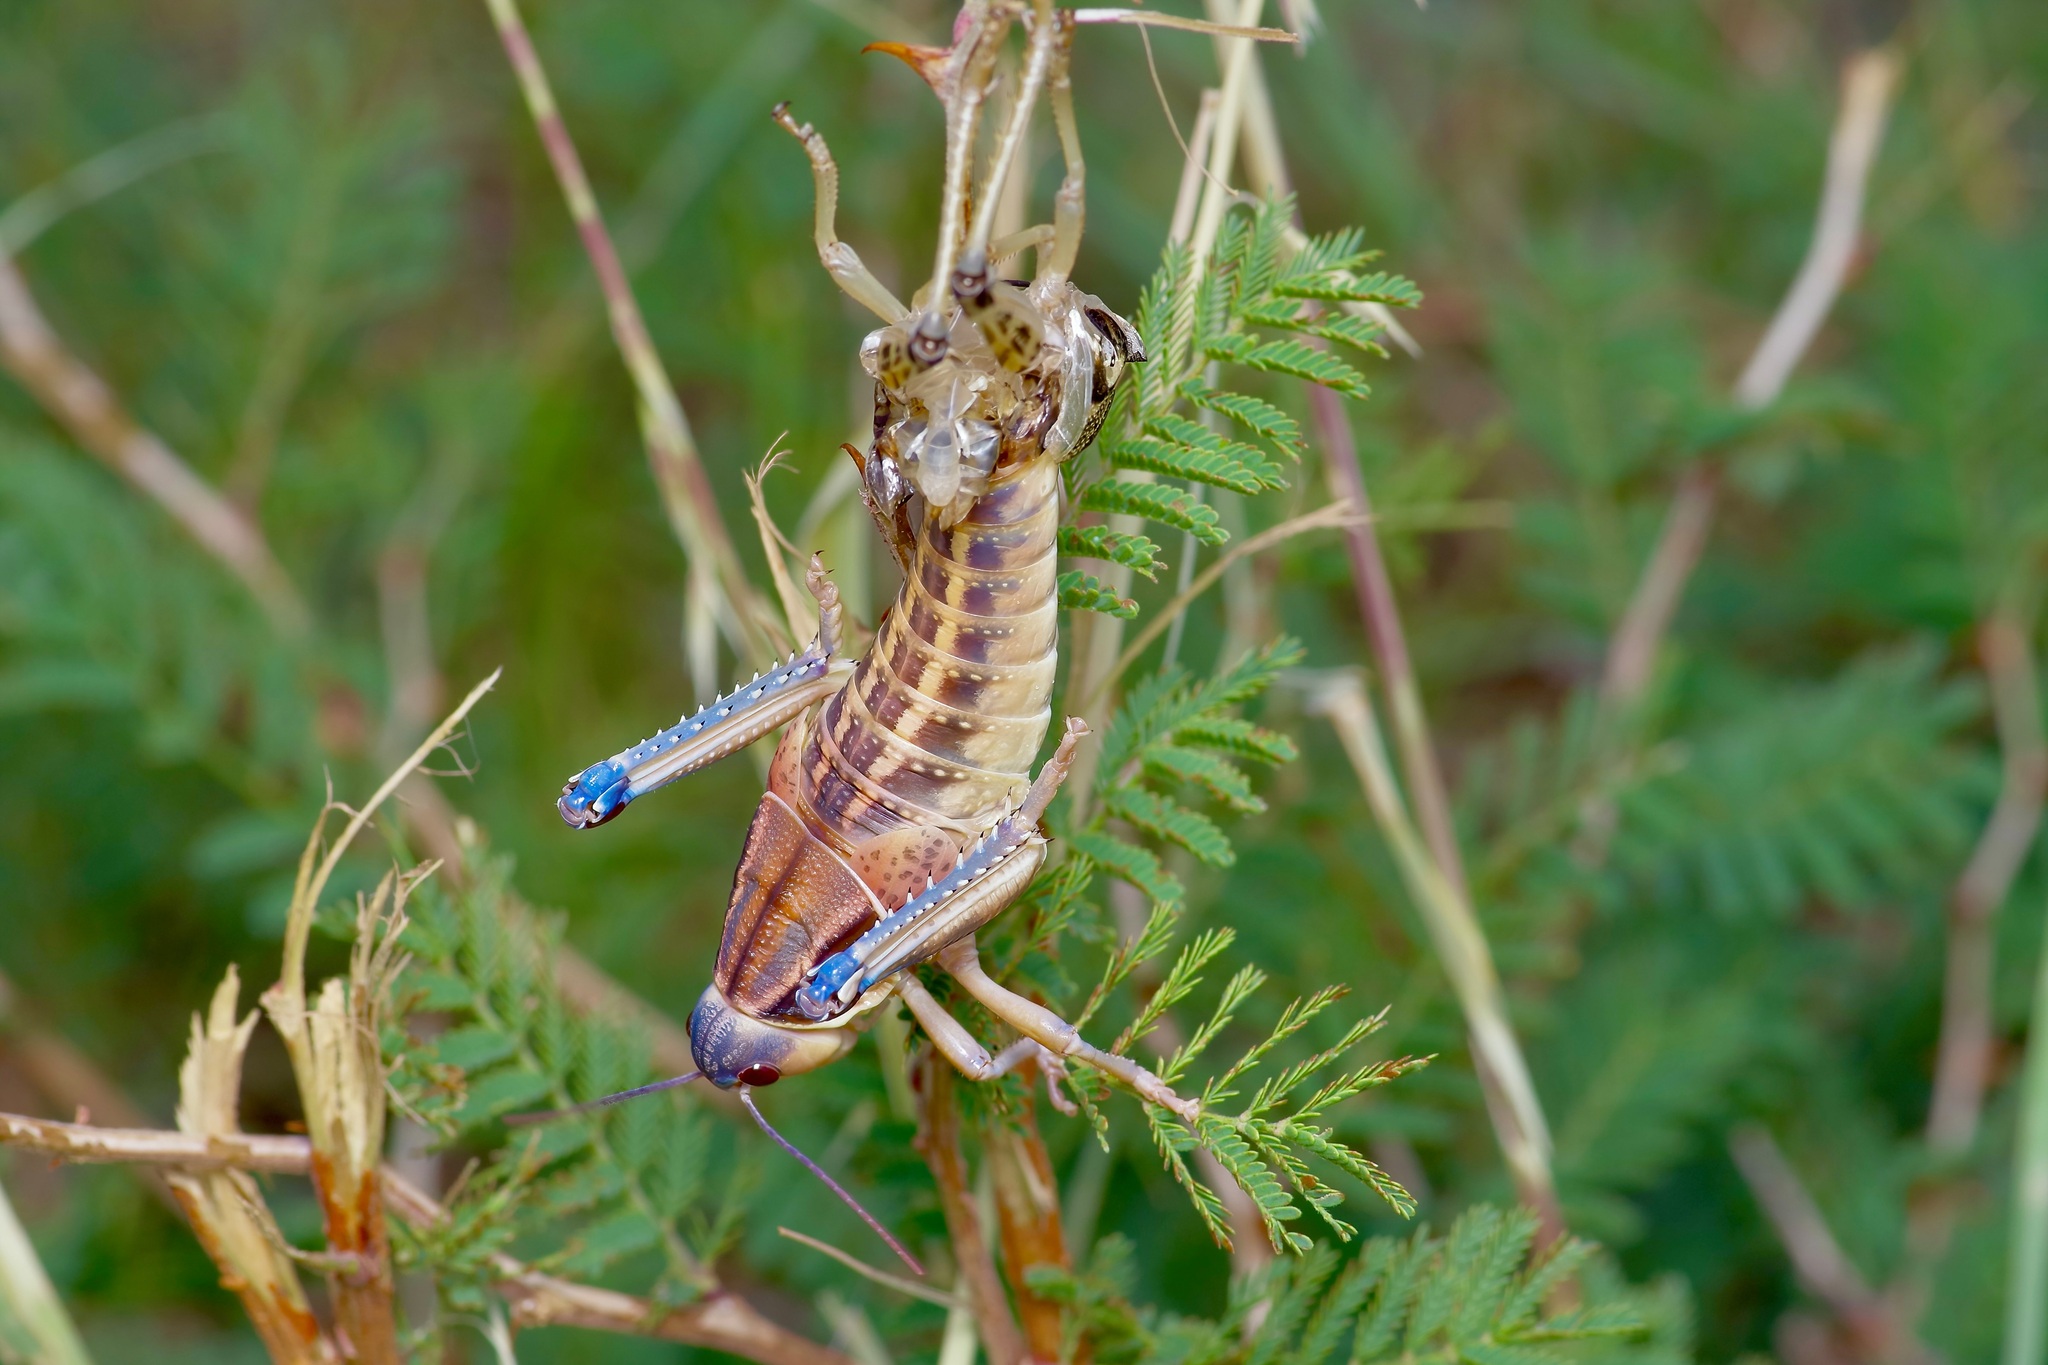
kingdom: Animalia
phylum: Arthropoda
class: Insecta
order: Orthoptera
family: Romaleidae
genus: Brachystola
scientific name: Brachystola magna
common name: Plains lubber grasshopper
